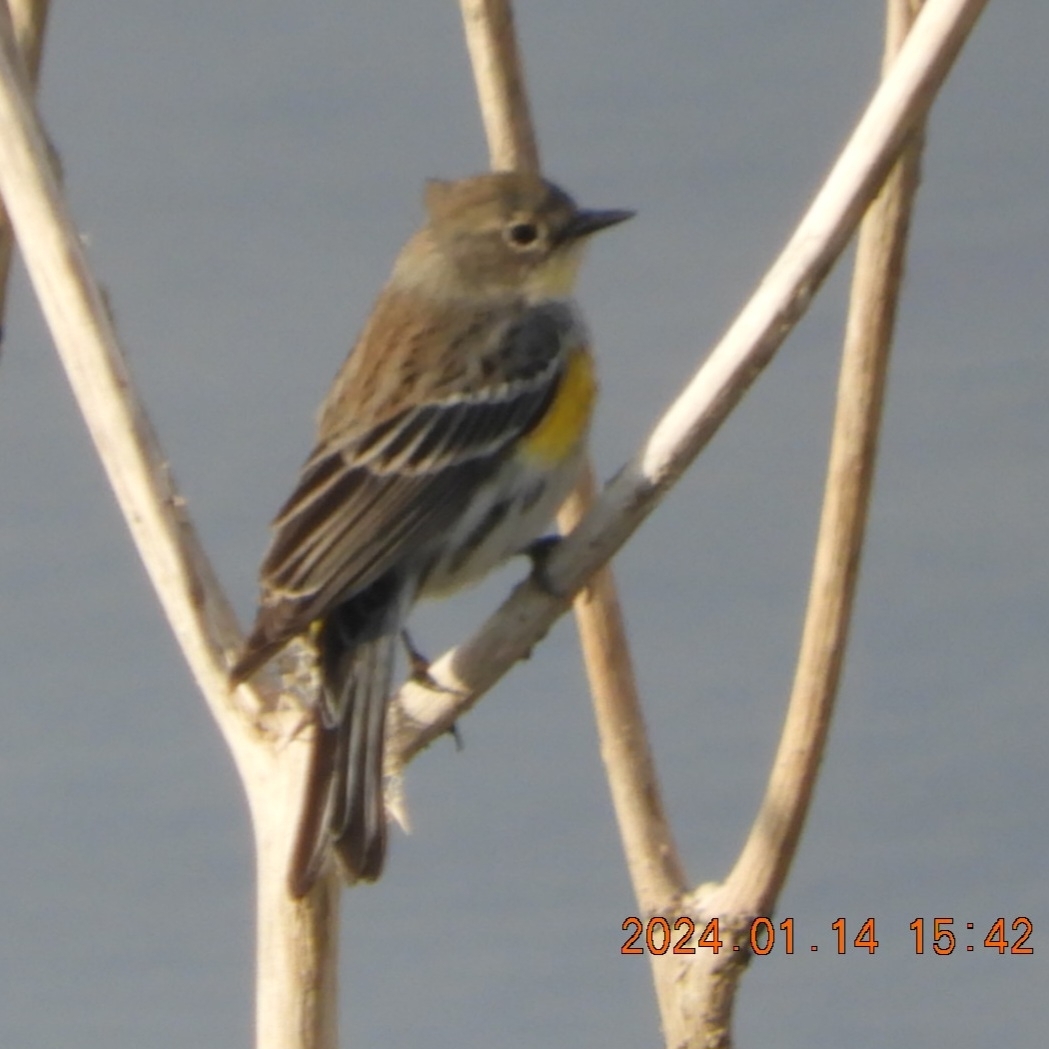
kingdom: Animalia
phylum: Chordata
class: Aves
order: Passeriformes
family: Parulidae
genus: Setophaga
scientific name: Setophaga coronata
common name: Myrtle warbler
